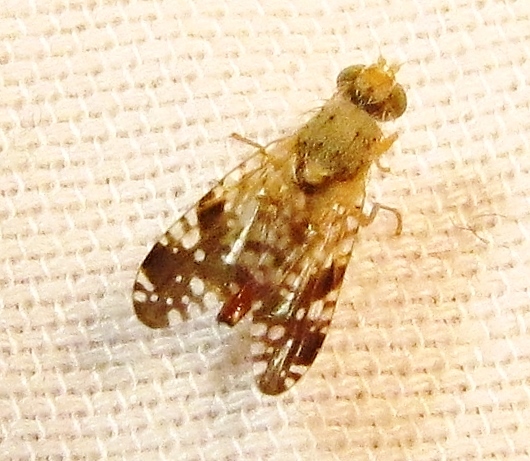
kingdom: Animalia
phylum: Arthropoda
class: Insecta
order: Diptera
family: Tephritidae
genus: Neotephritis
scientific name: Neotephritis finalis
